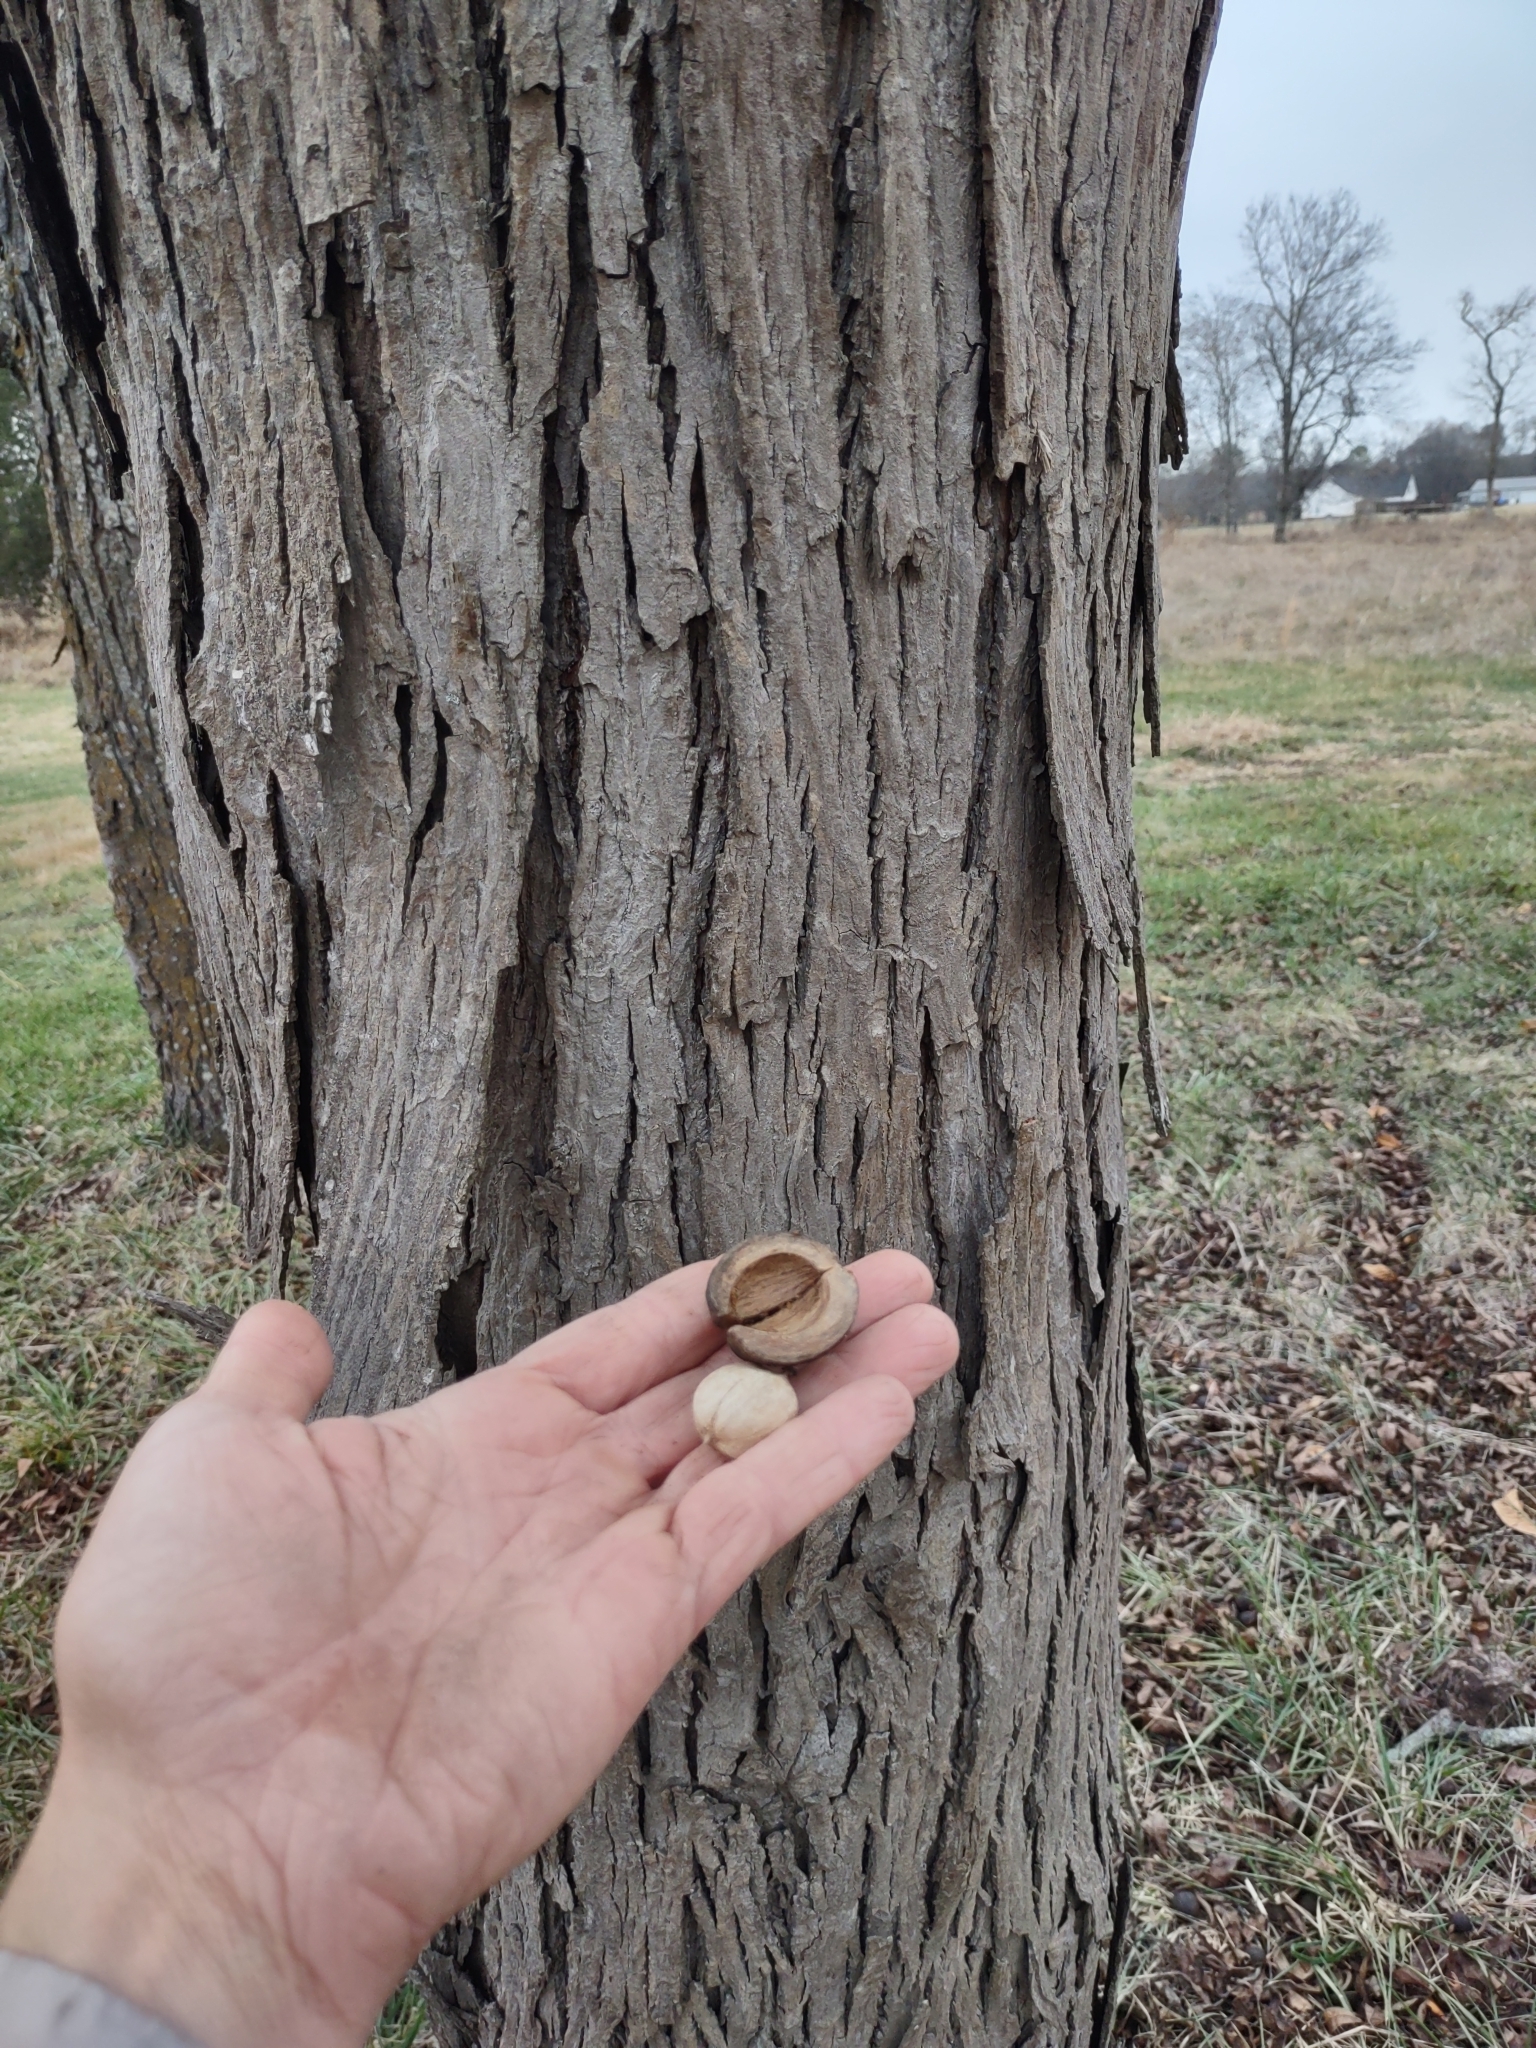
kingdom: Plantae
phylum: Tracheophyta
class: Magnoliopsida
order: Fagales
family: Juglandaceae
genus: Carya
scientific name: Carya ovata
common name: Shagbark hickory
